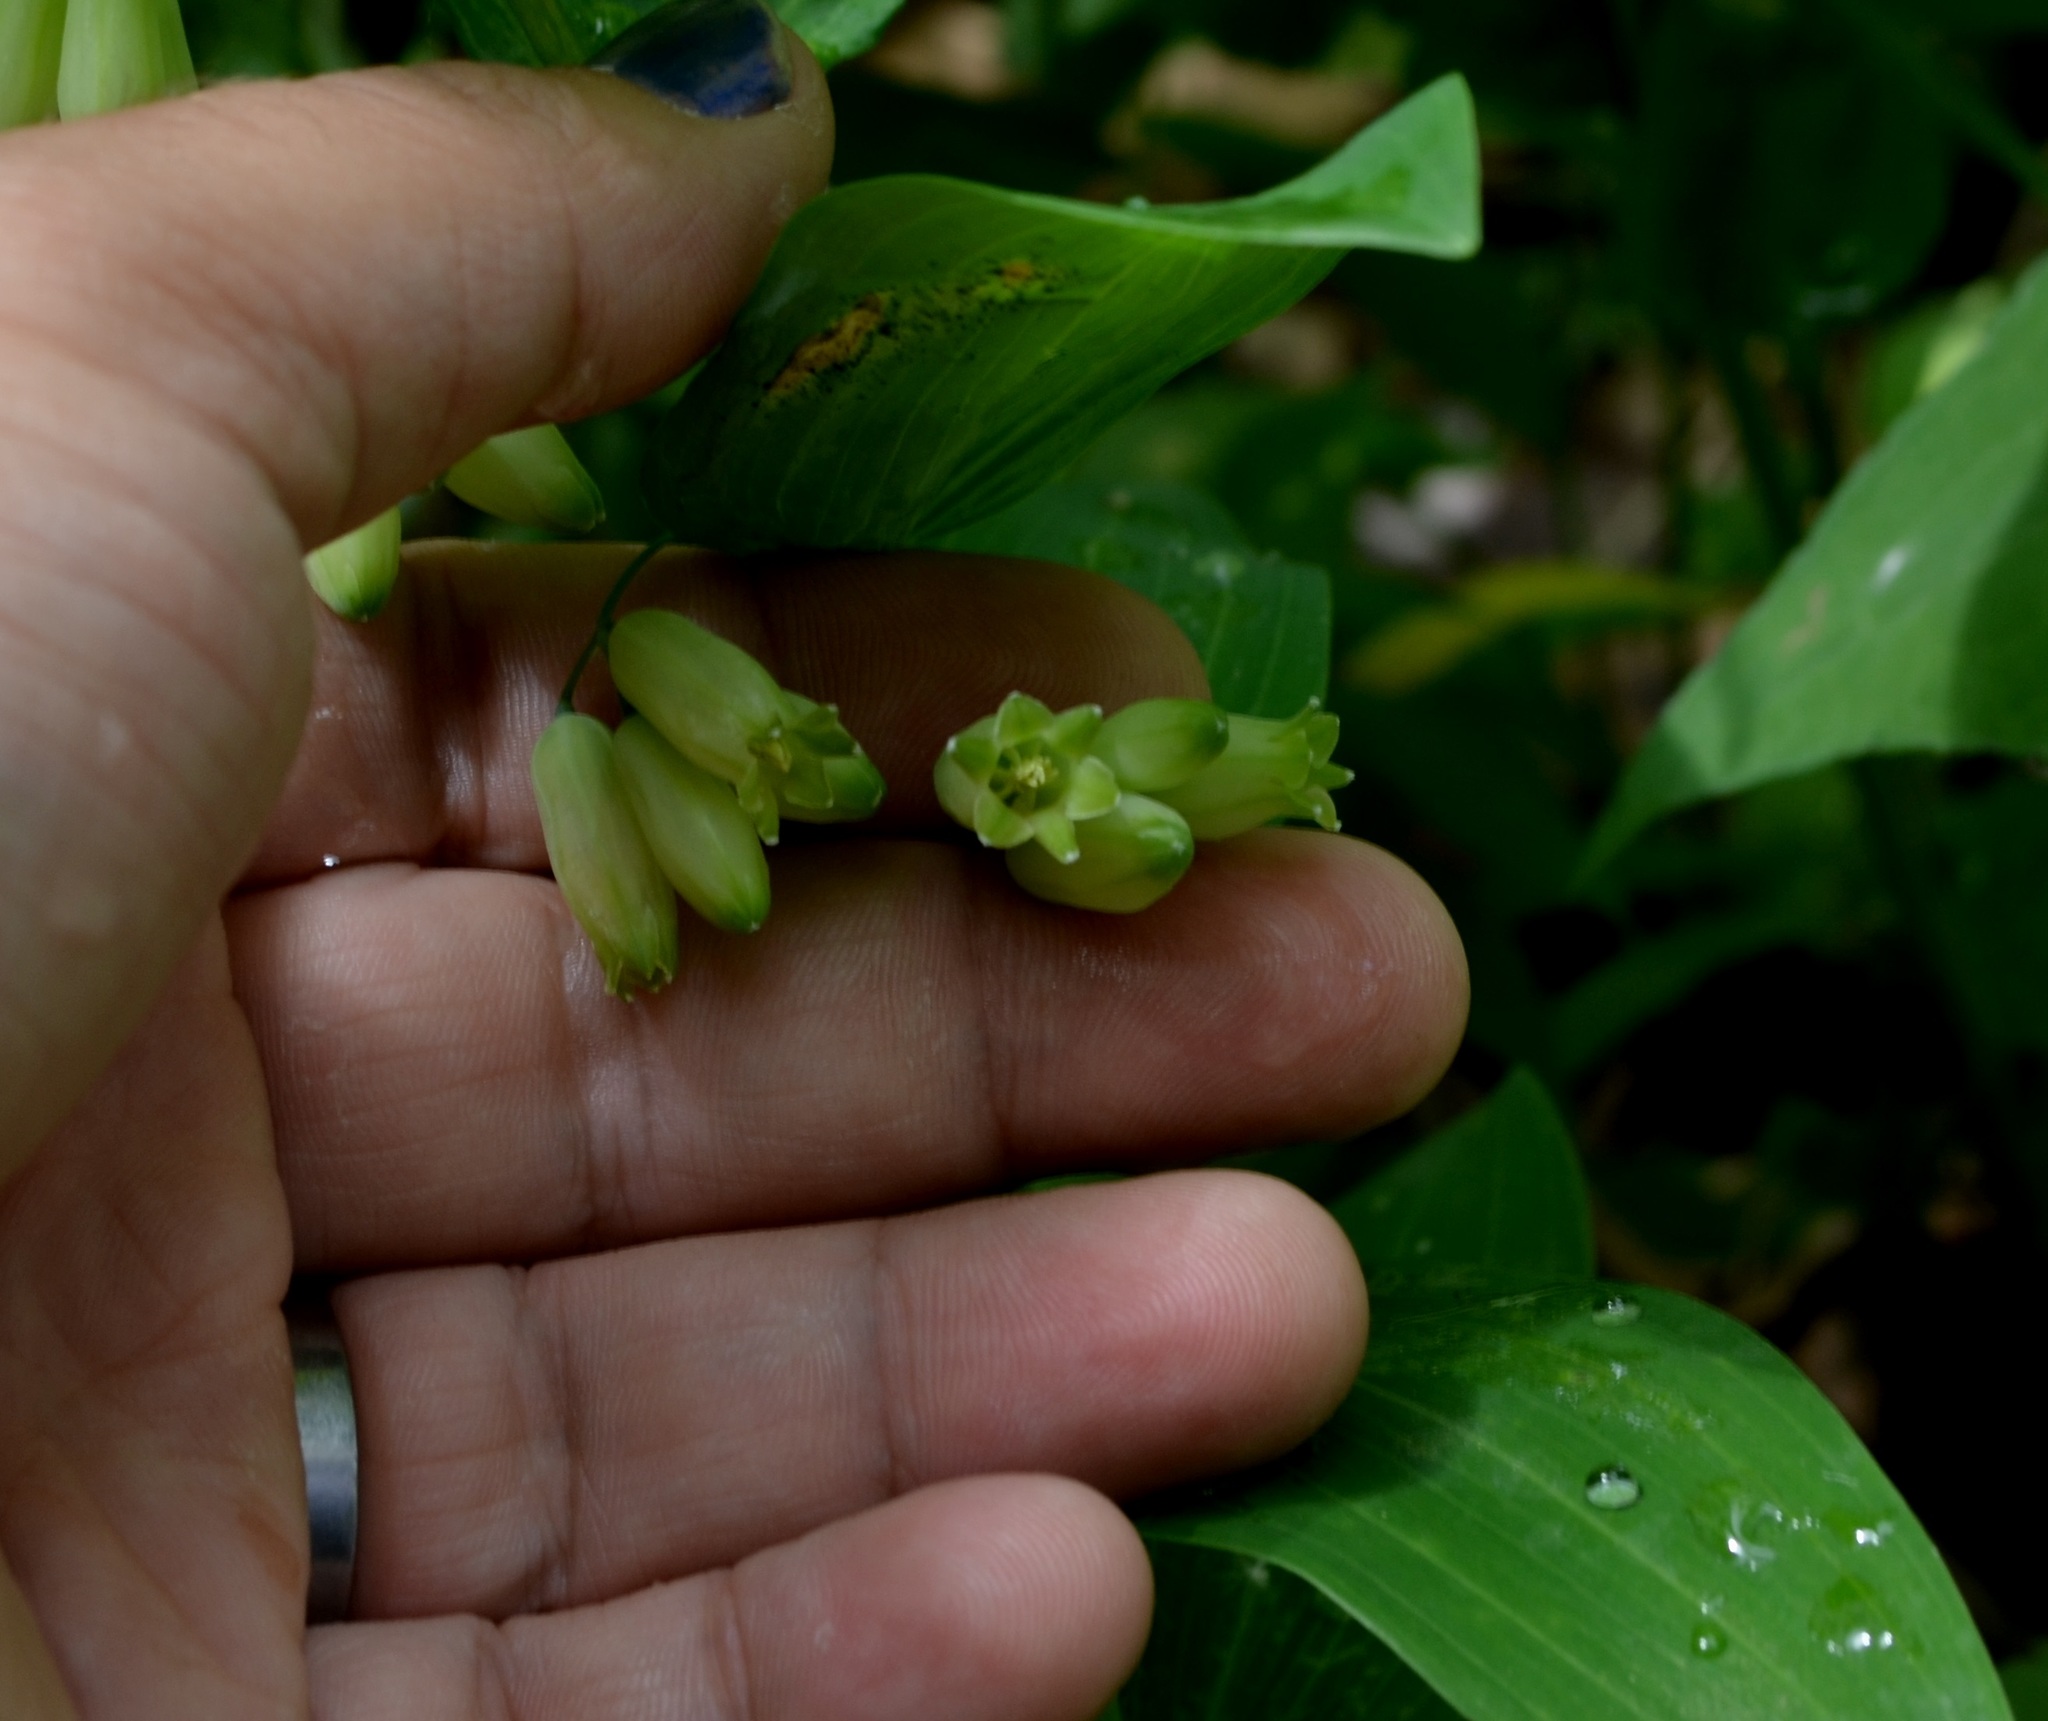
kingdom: Plantae
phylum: Tracheophyta
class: Liliopsida
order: Asparagales
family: Asparagaceae
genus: Polygonatum
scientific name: Polygonatum biflorum
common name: American solomon's-seal
